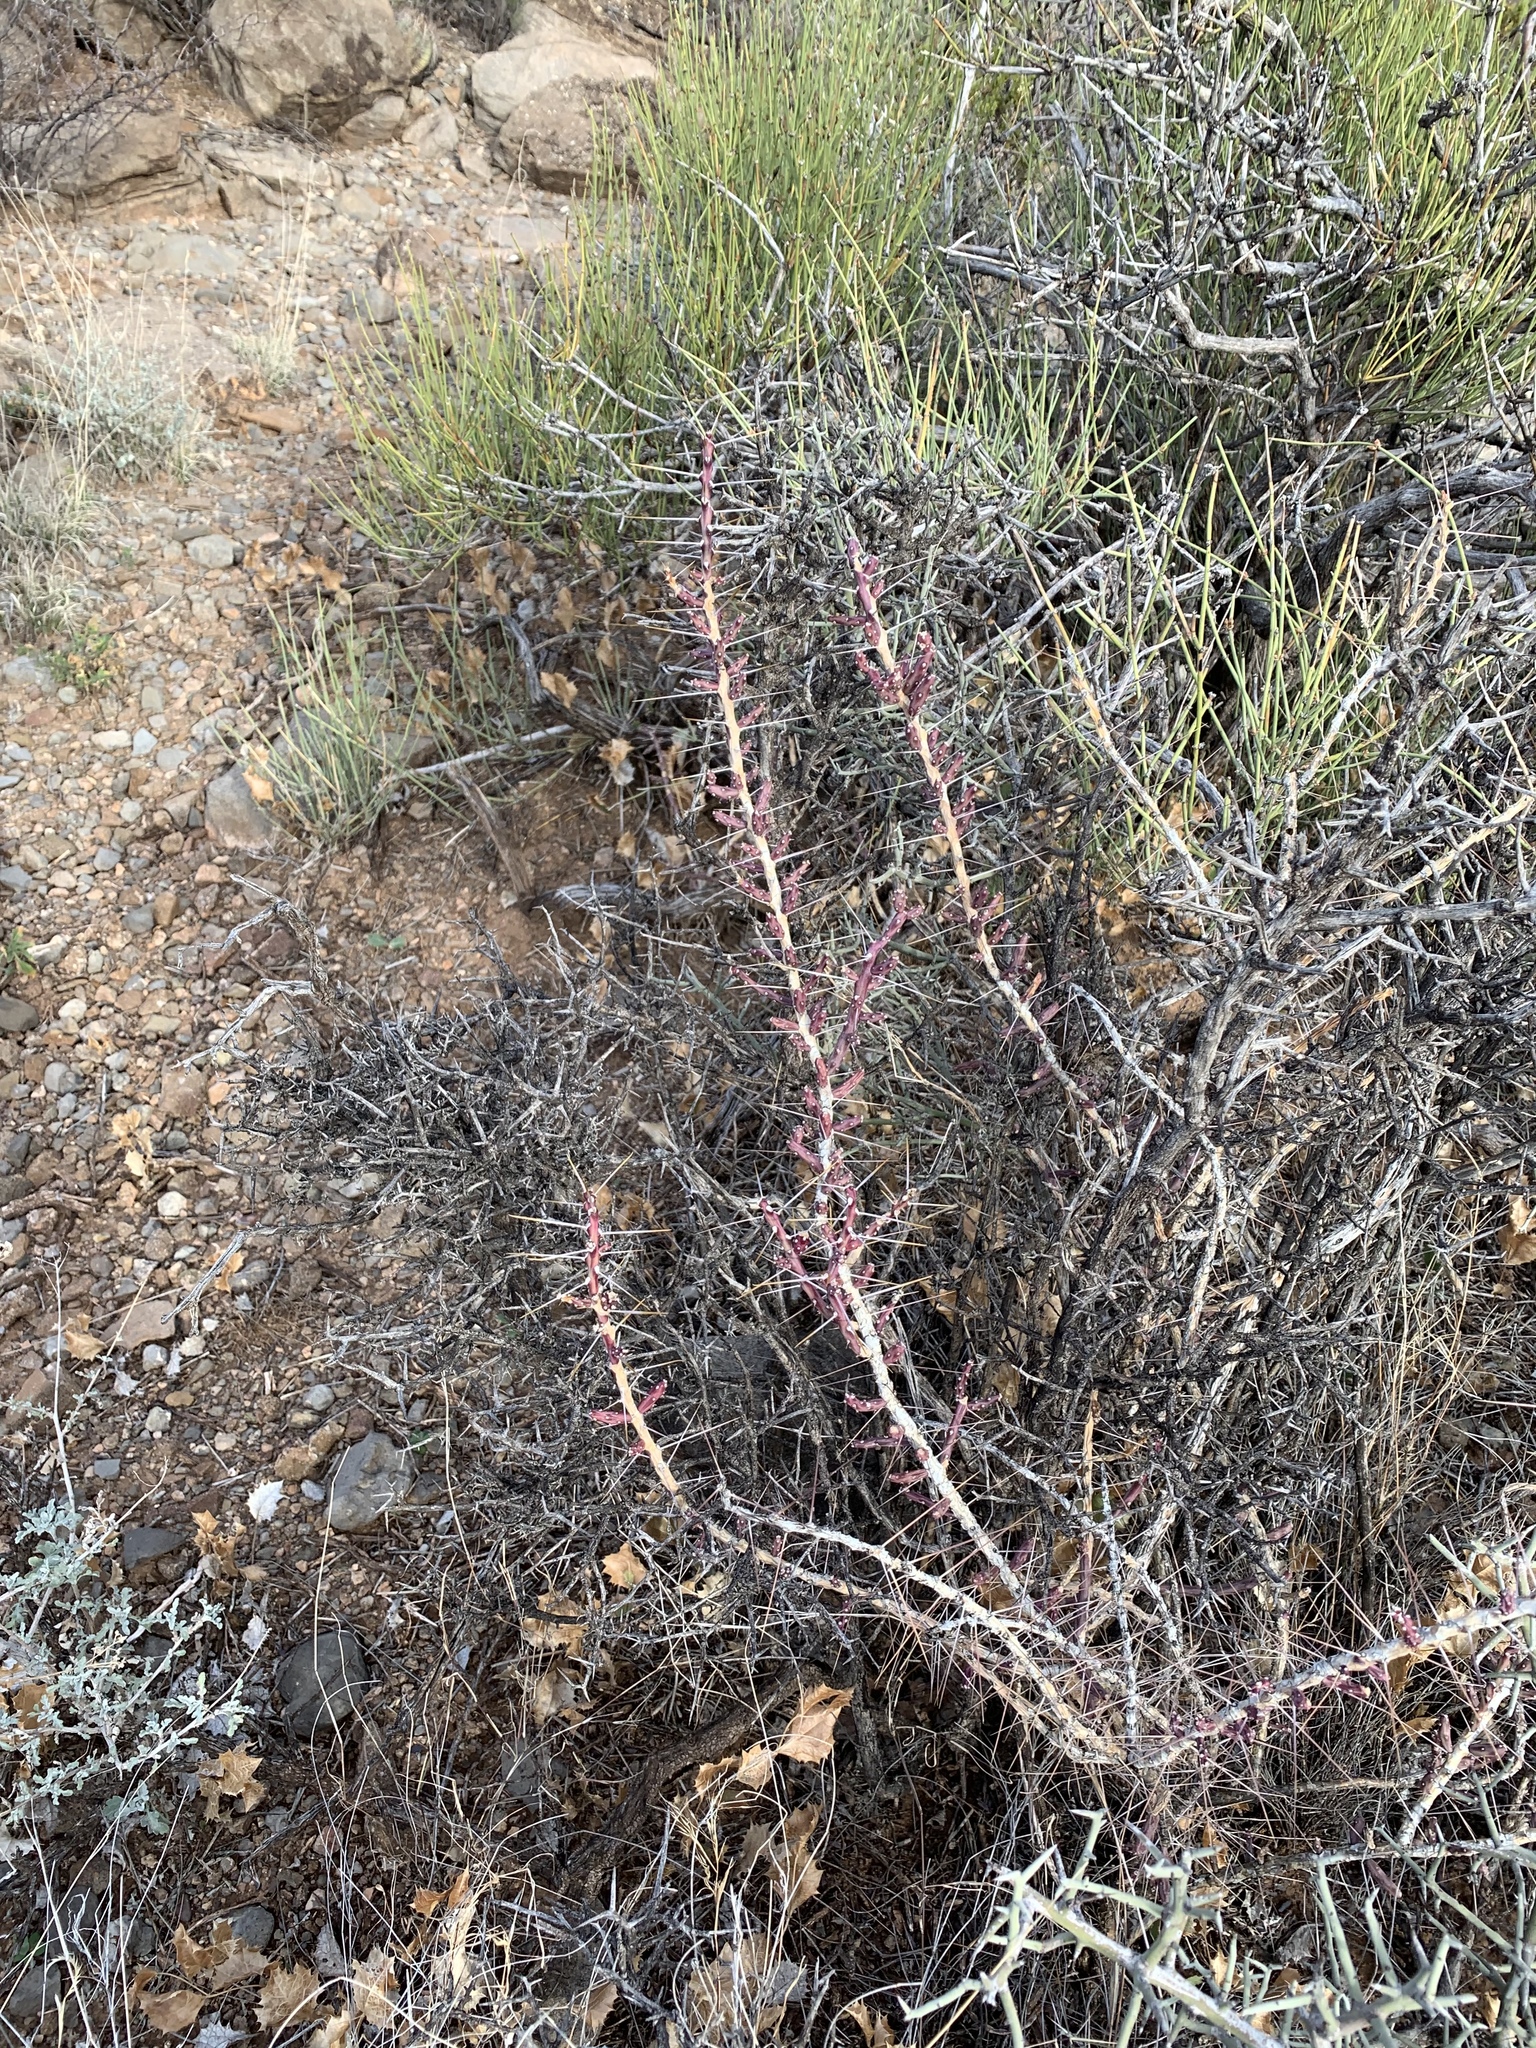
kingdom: Plantae
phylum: Tracheophyta
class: Magnoliopsida
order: Caryophyllales
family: Cactaceae
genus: Cylindropuntia
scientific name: Cylindropuntia leptocaulis
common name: Christmas cactus
